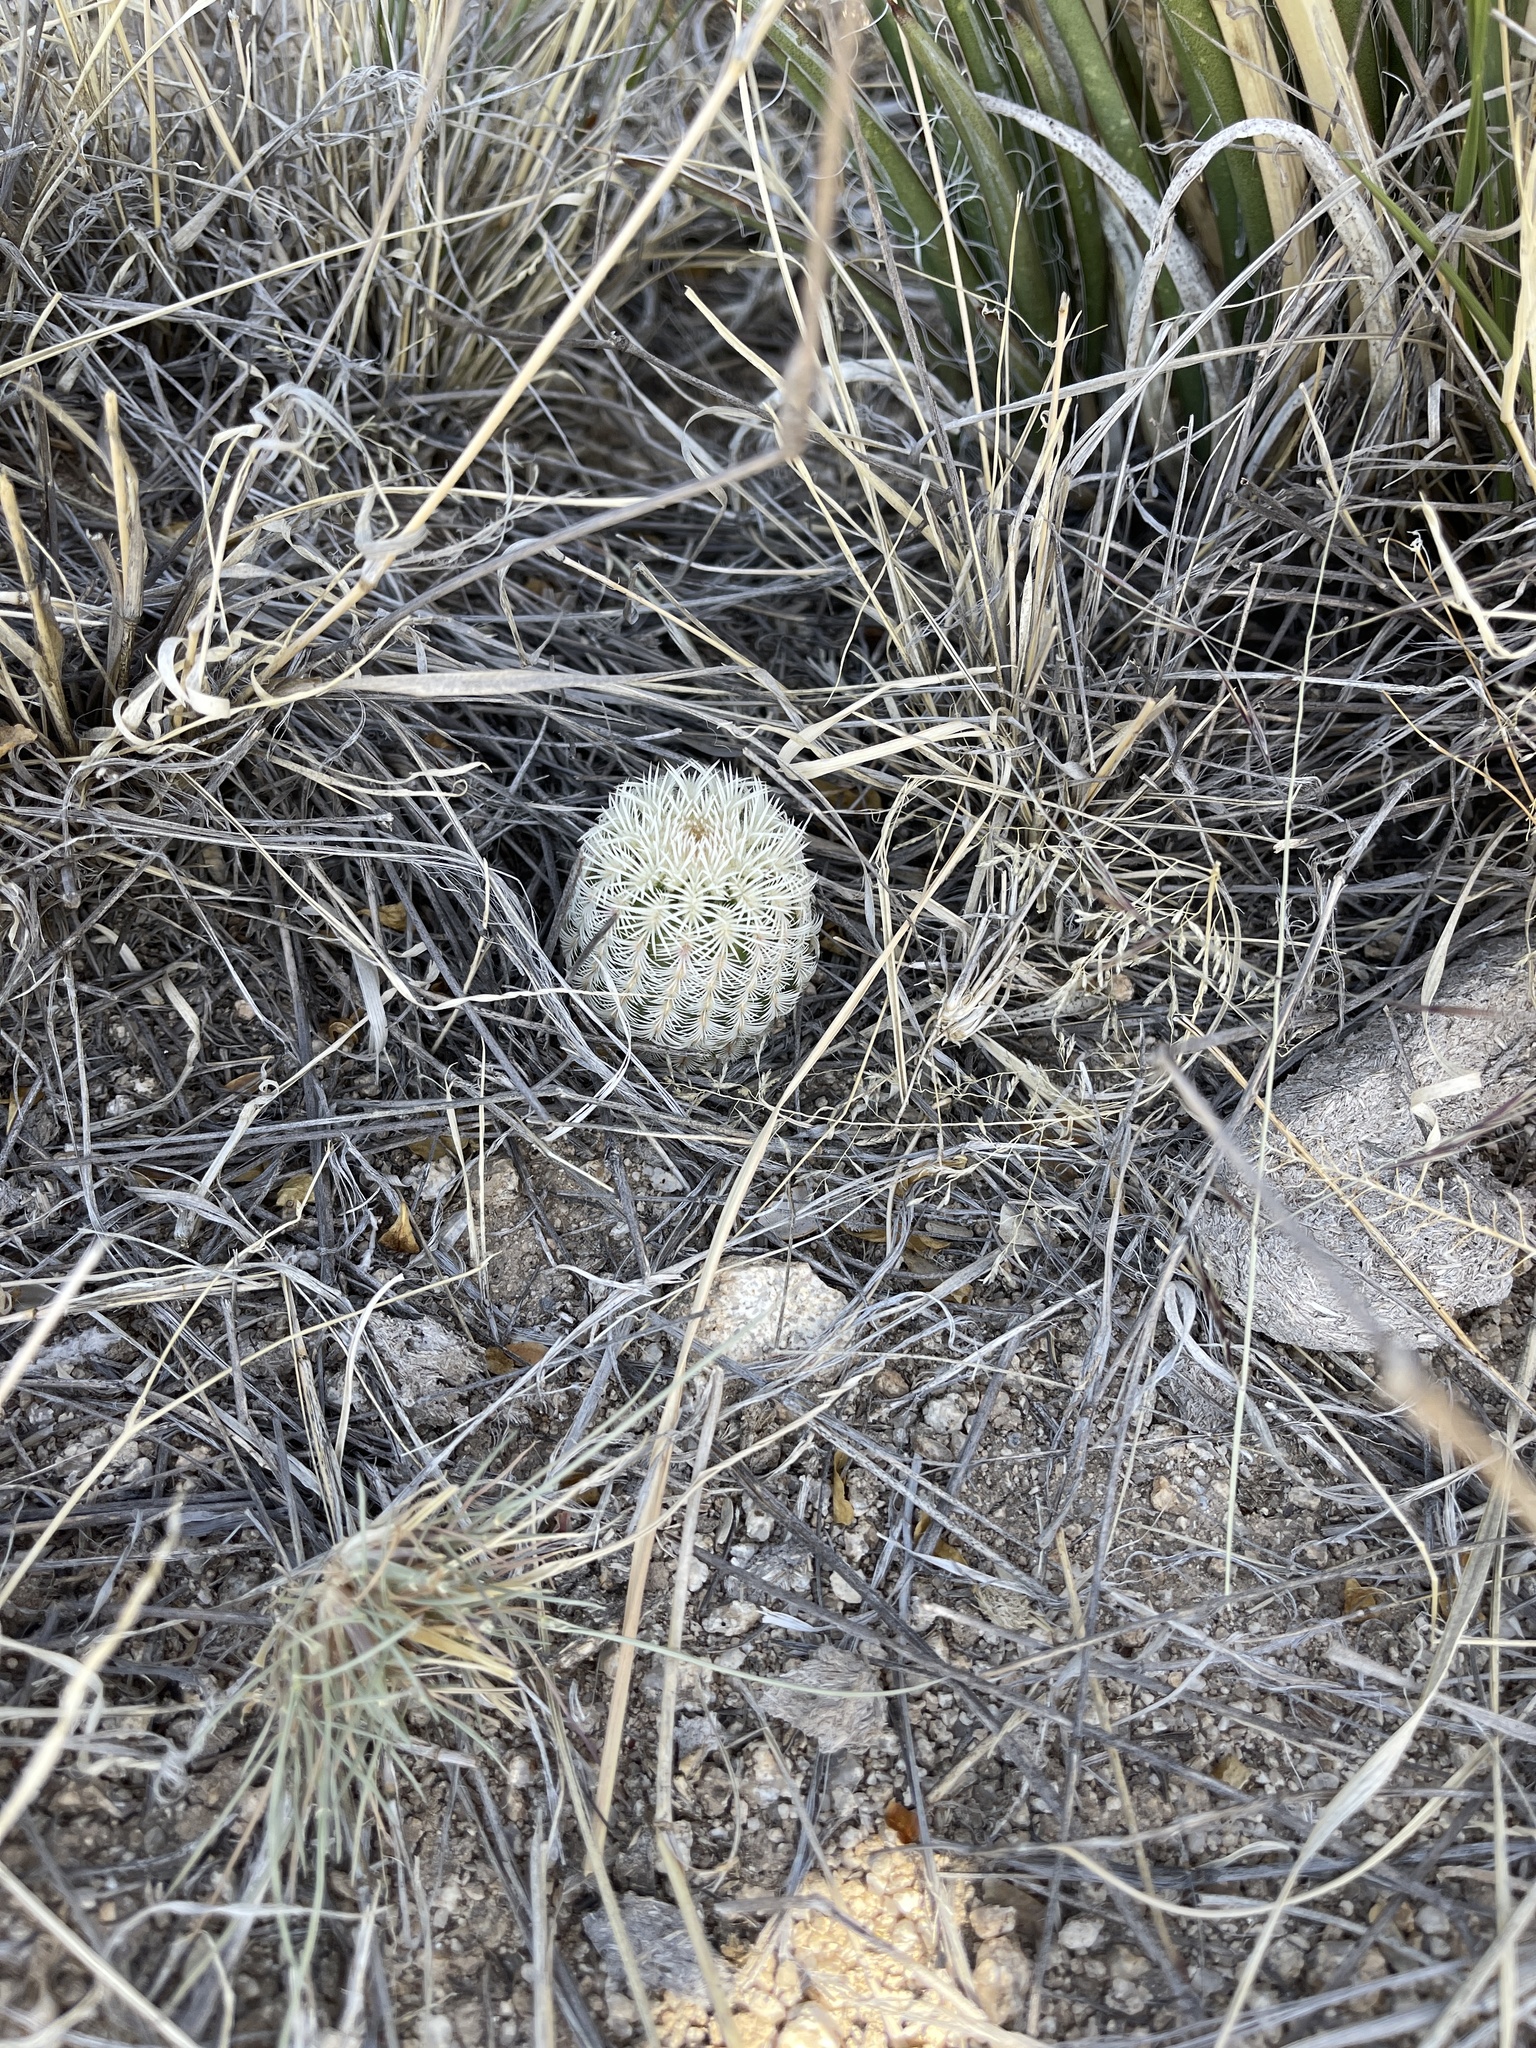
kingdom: Plantae
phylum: Tracheophyta
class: Magnoliopsida
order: Caryophyllales
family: Cactaceae
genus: Echinocereus
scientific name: Echinocereus rigidissimus
